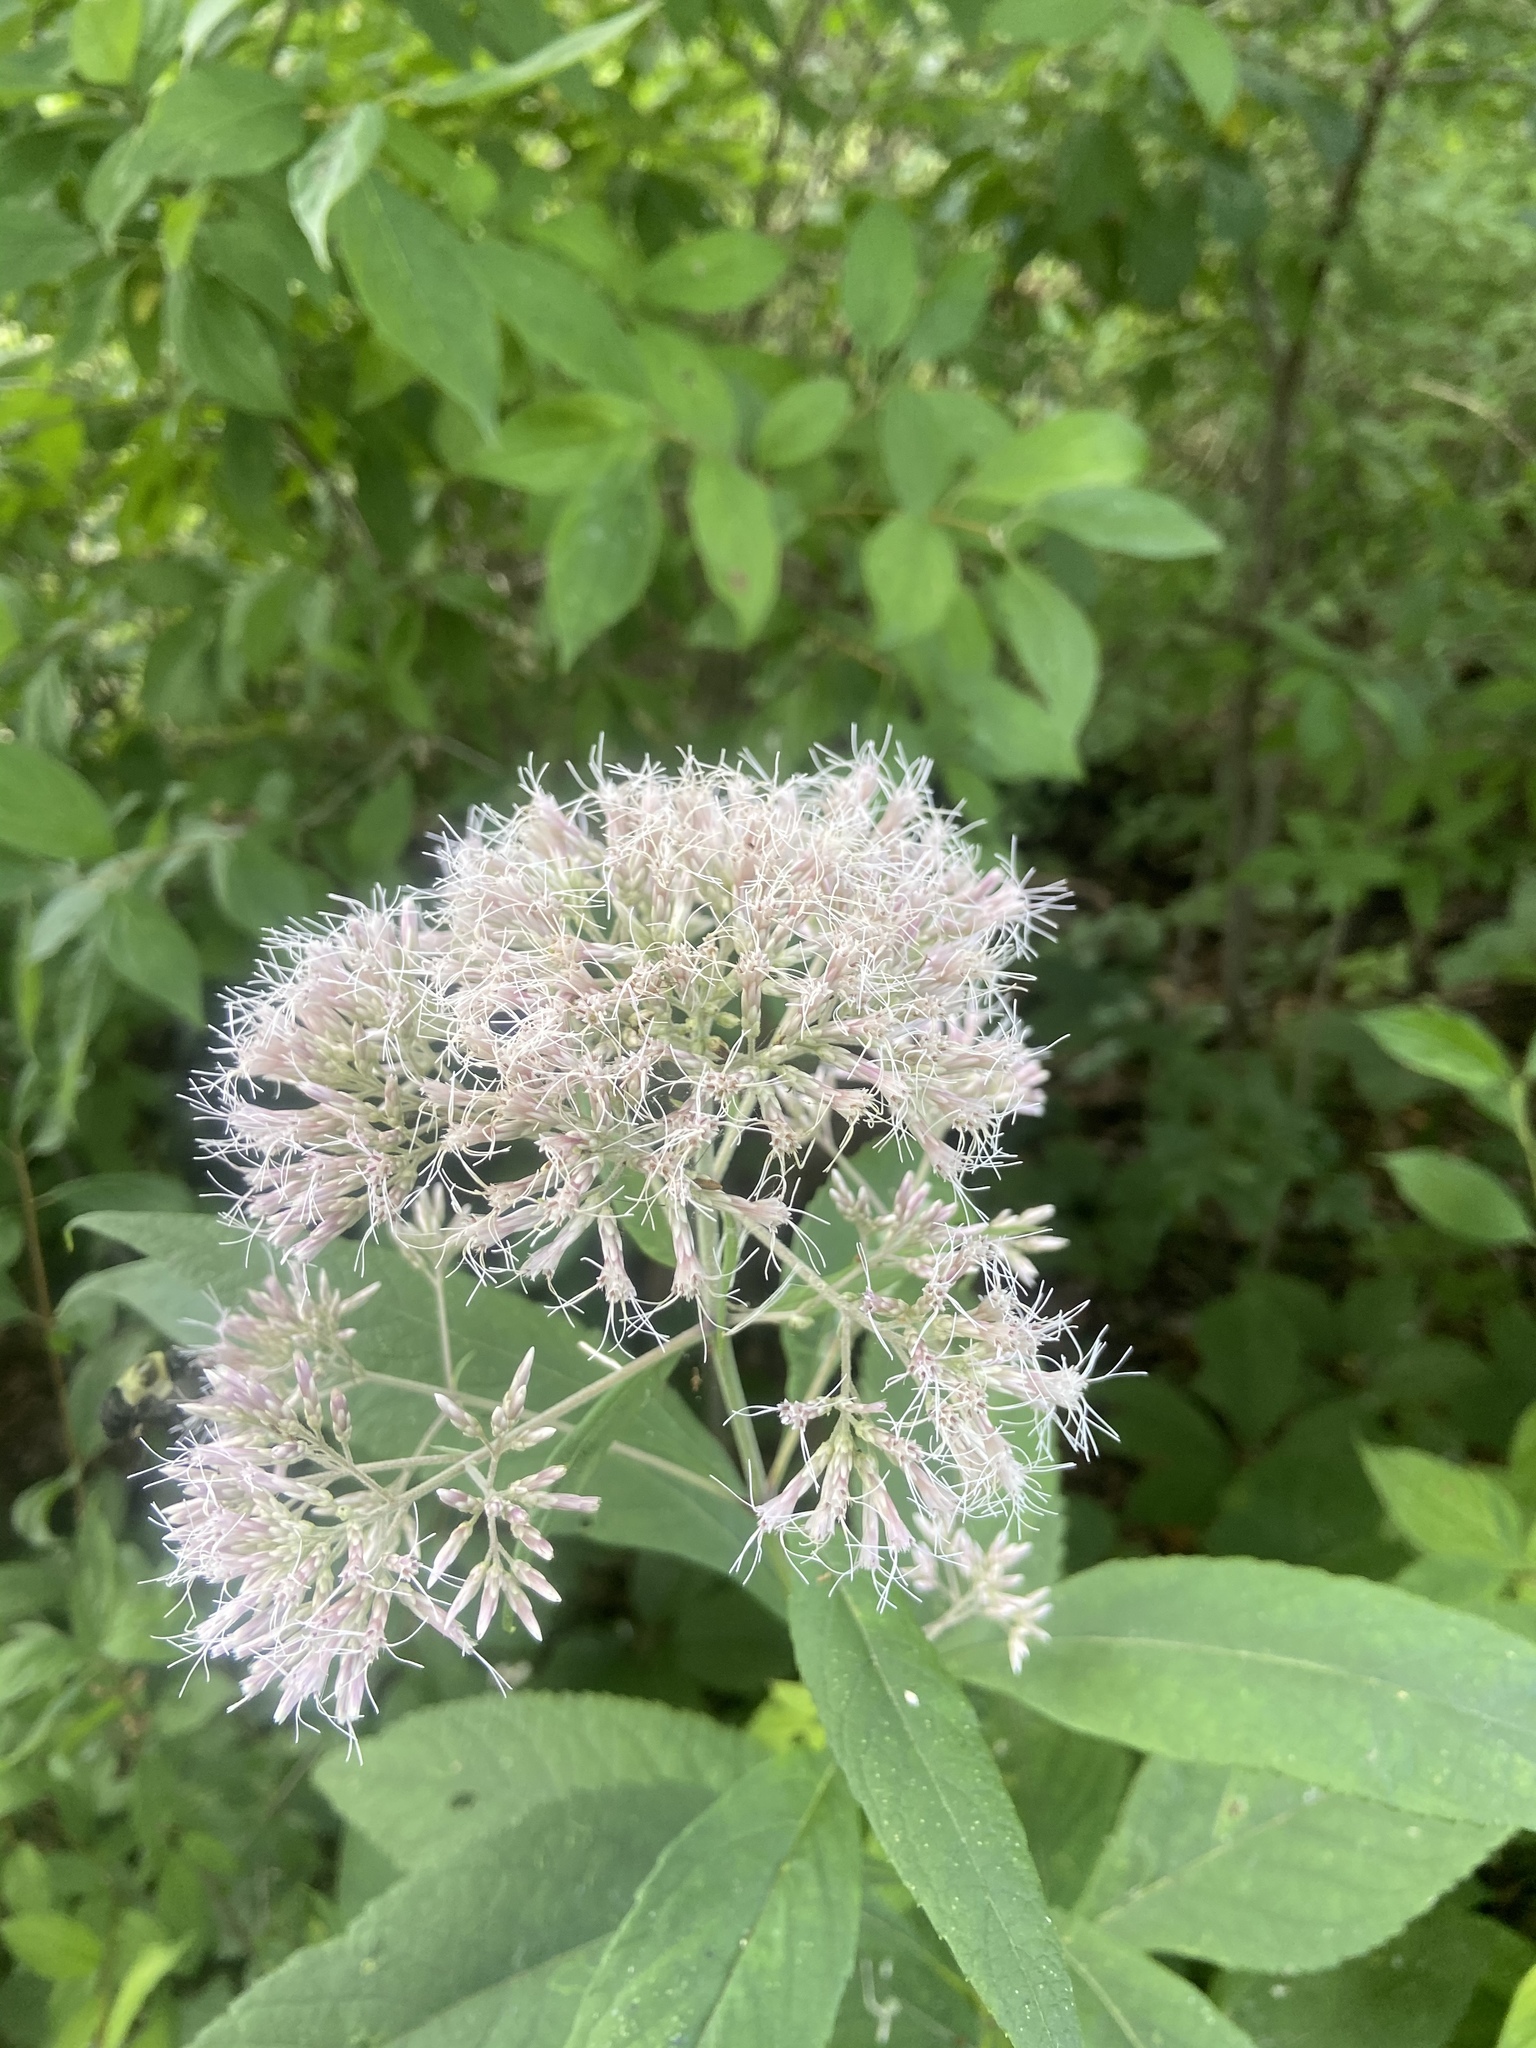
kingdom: Plantae
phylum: Tracheophyta
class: Magnoliopsida
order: Asterales
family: Asteraceae
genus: Eutrochium
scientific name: Eutrochium purpureum
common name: Gravelroot
